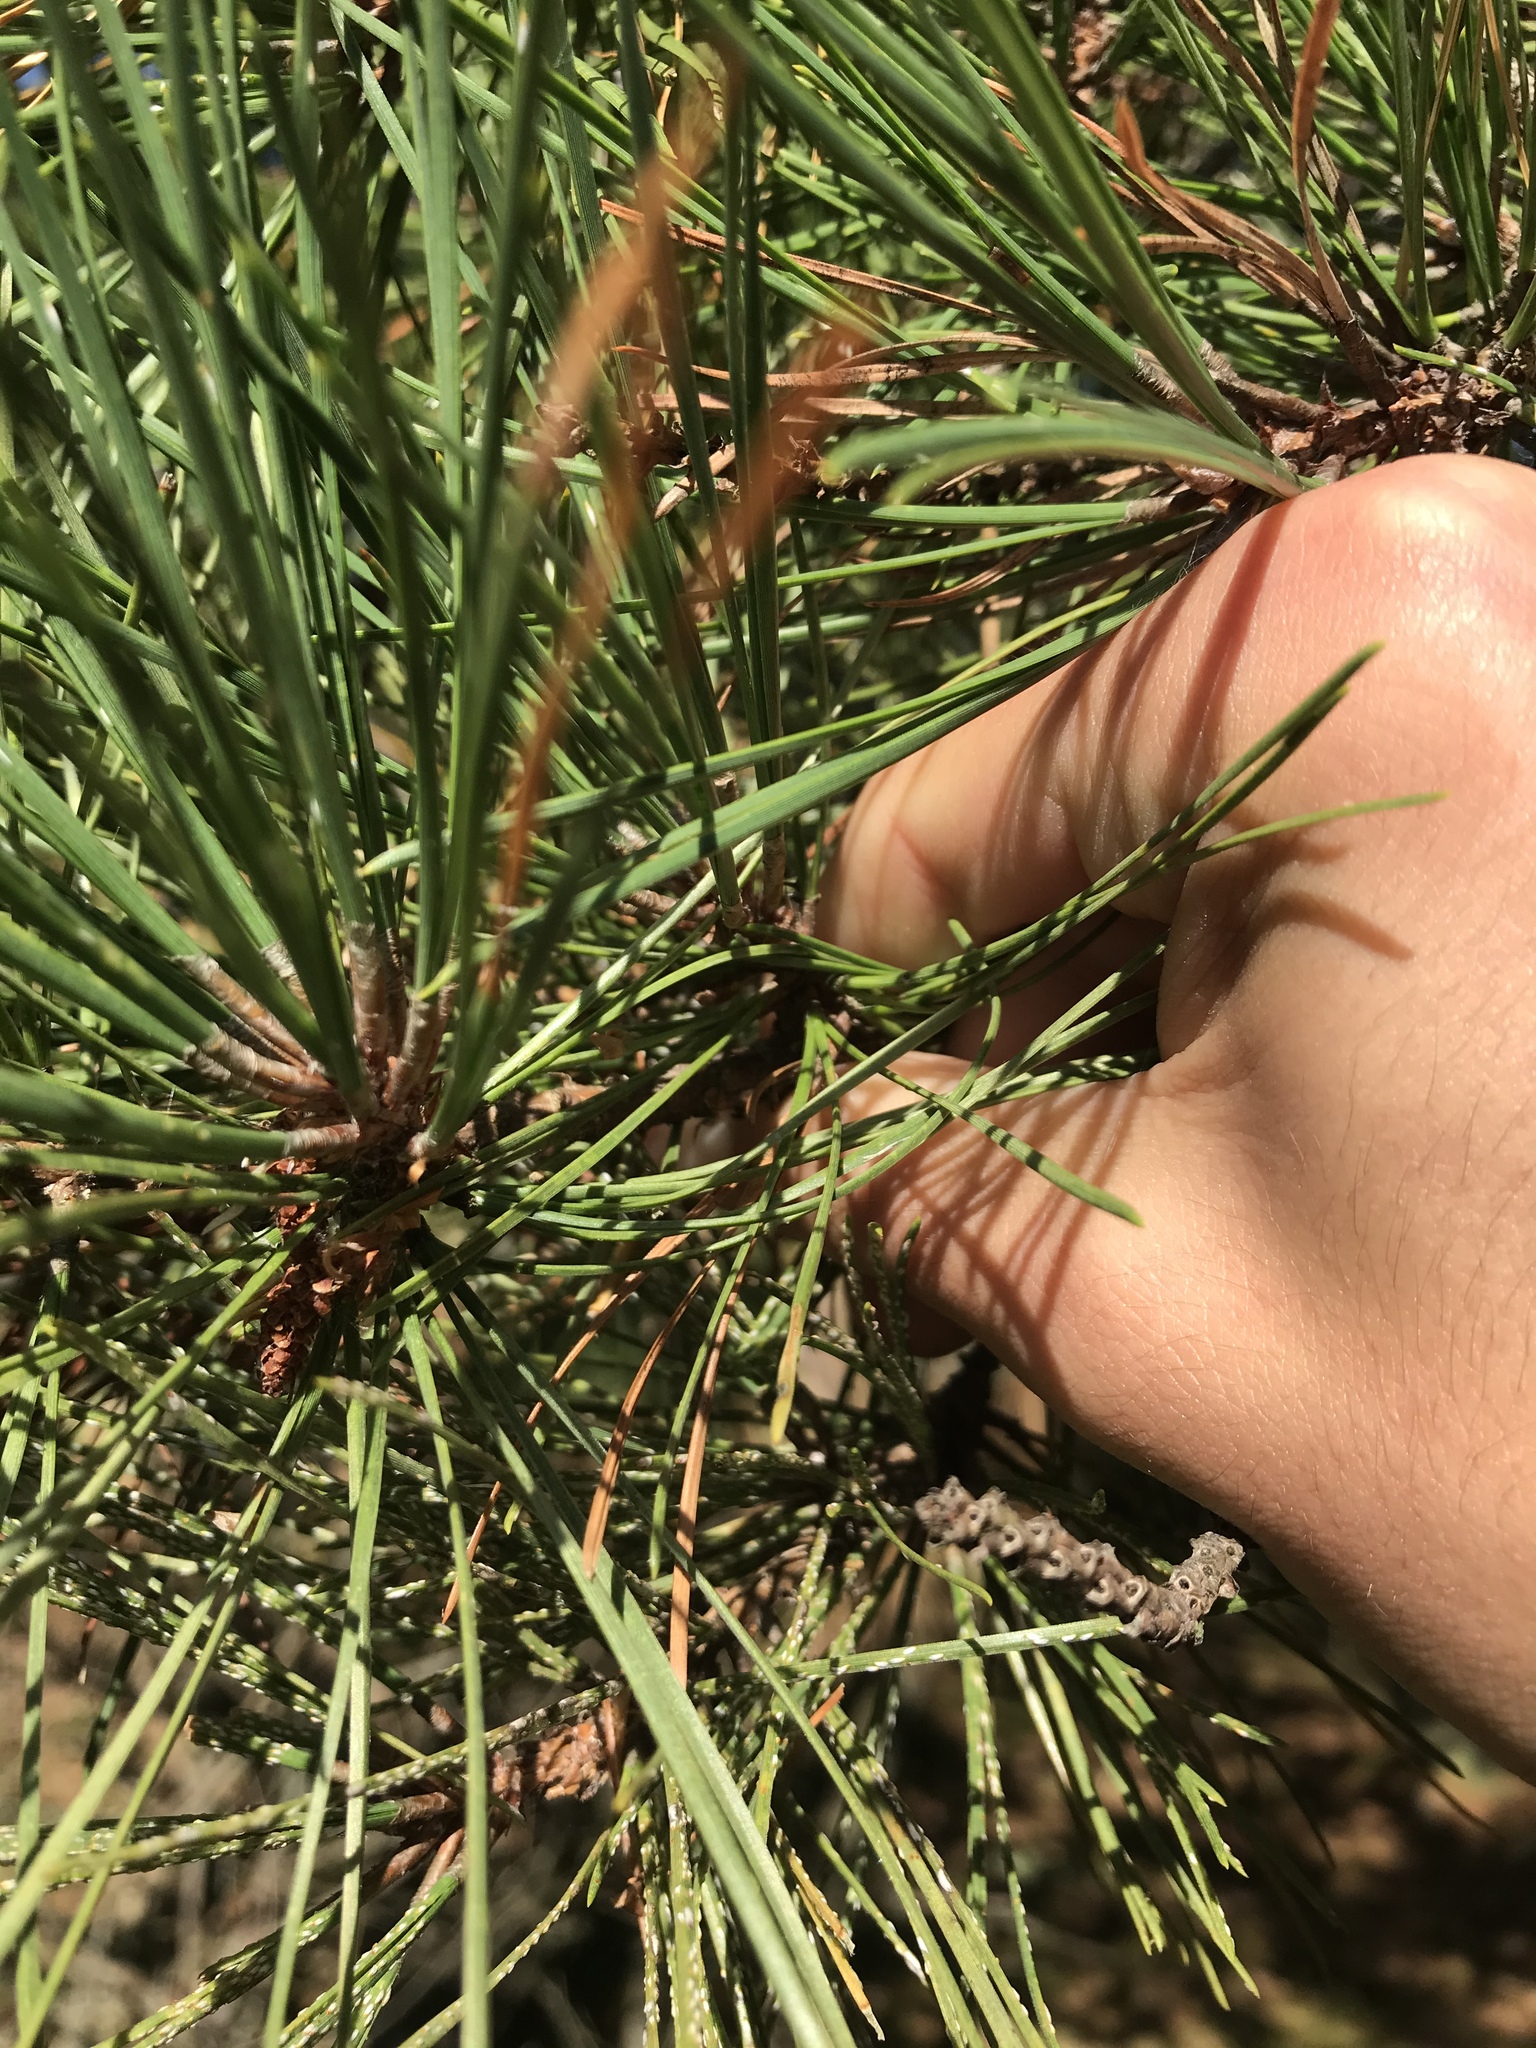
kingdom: Plantae
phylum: Tracheophyta
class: Pinopsida
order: Pinales
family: Pinaceae
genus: Pinus
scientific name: Pinus rigida
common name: Pitch pine
